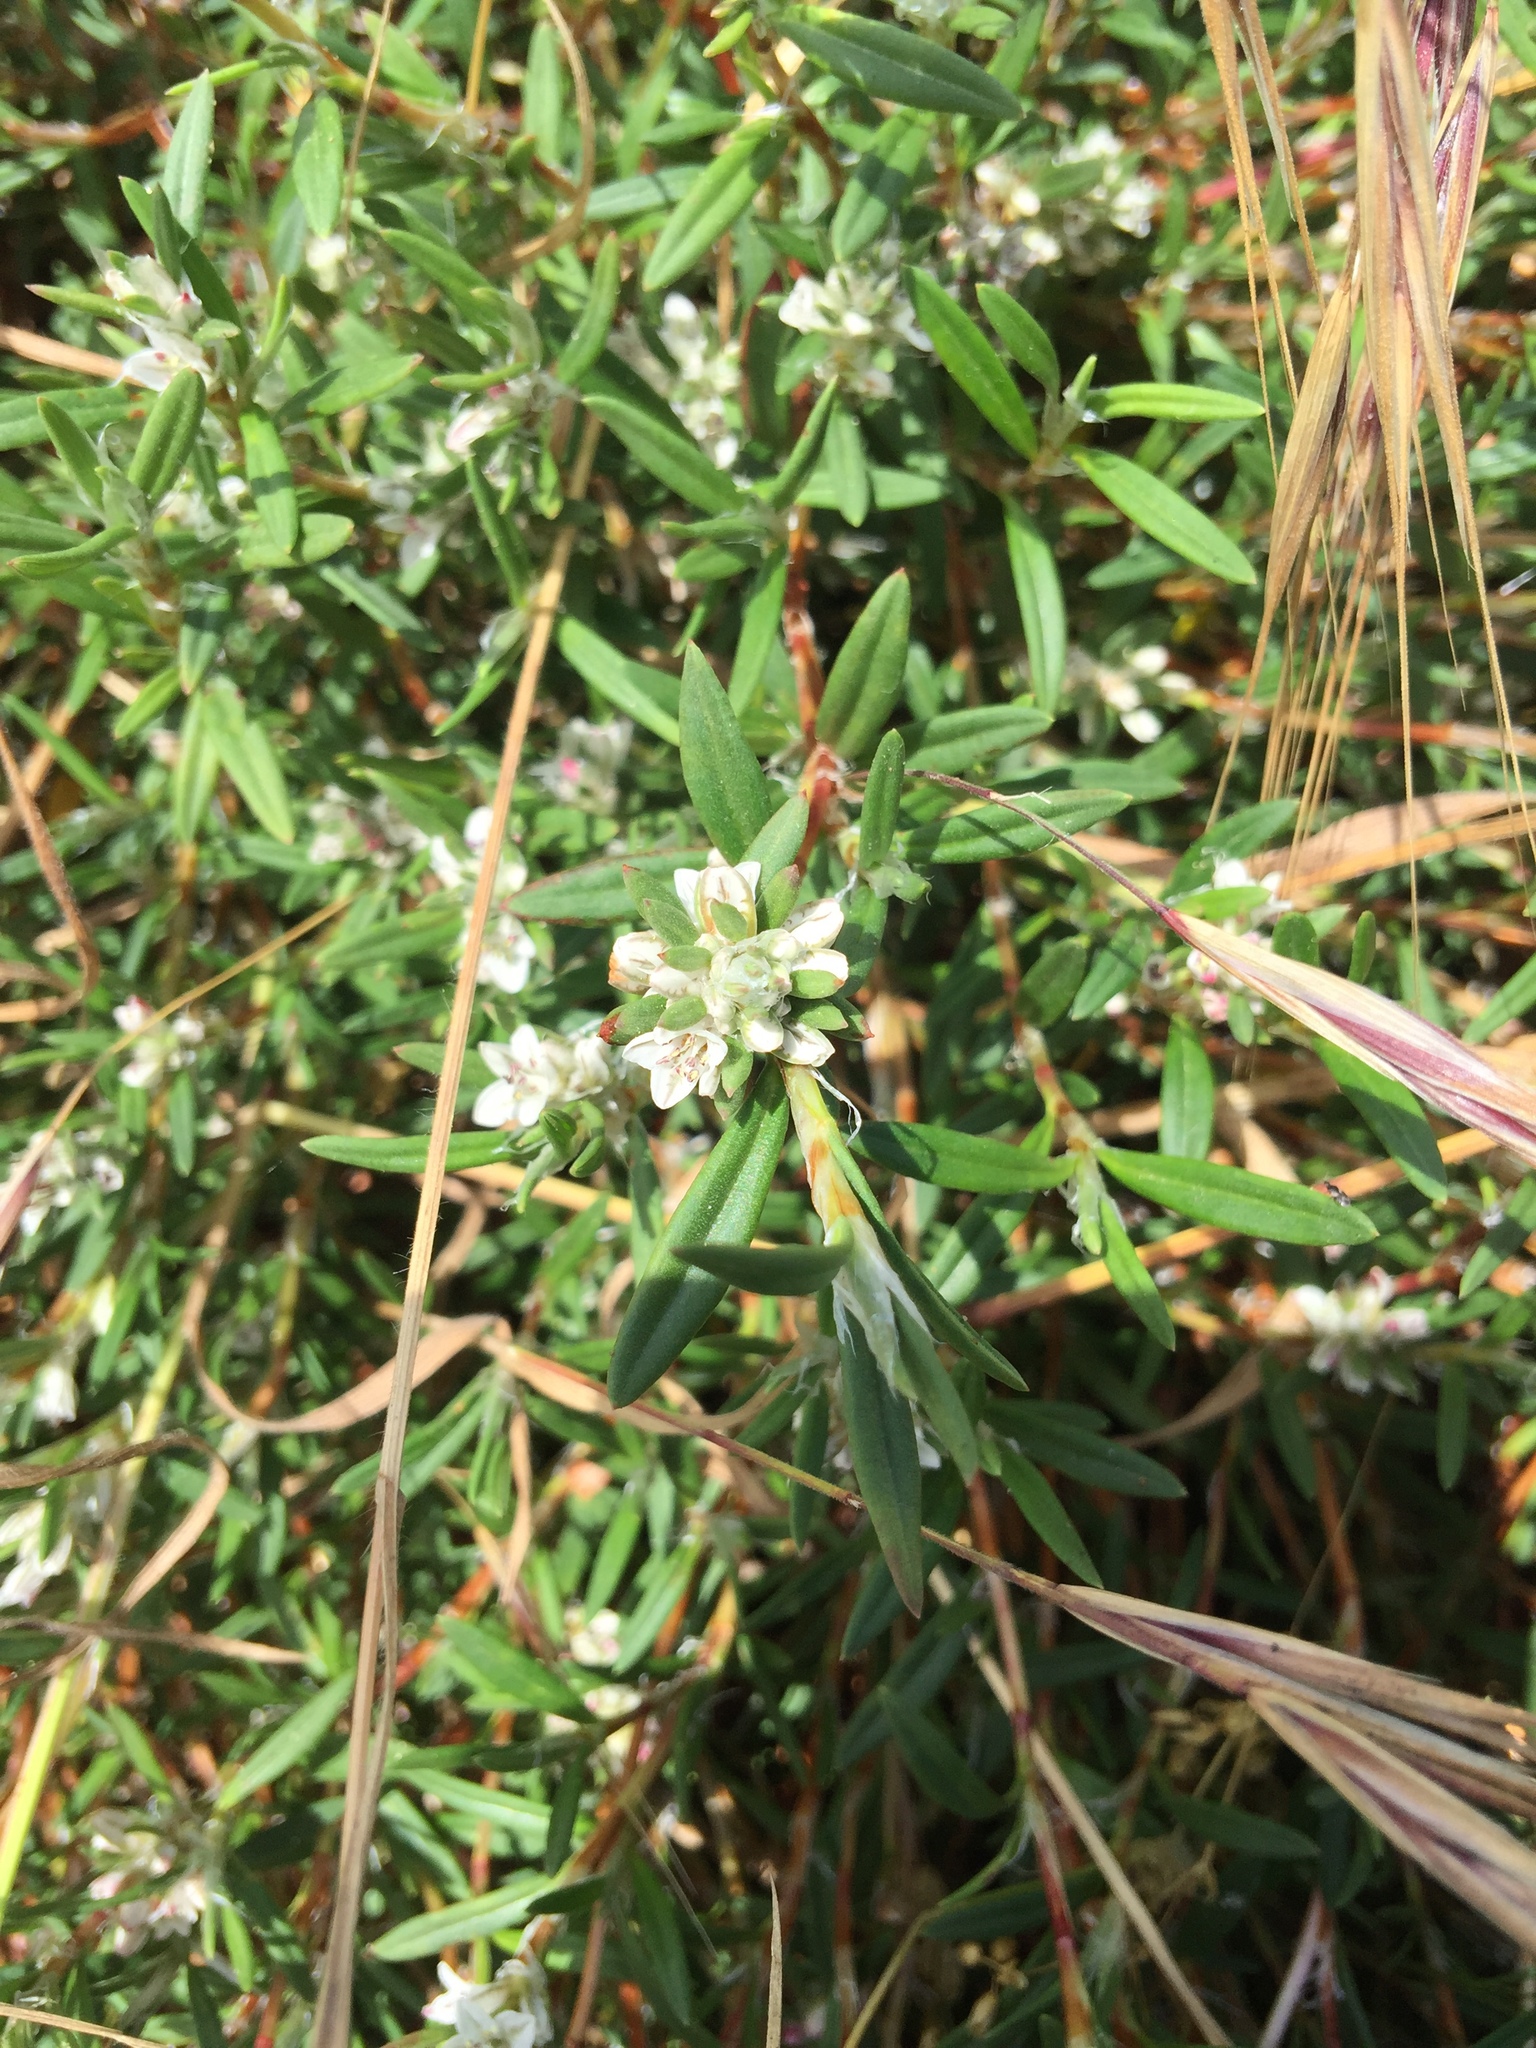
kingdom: Plantae
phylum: Tracheophyta
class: Magnoliopsida
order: Caryophyllales
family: Polygonaceae
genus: Polygonum
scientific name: Polygonum paronychia
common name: Dune knotweed
